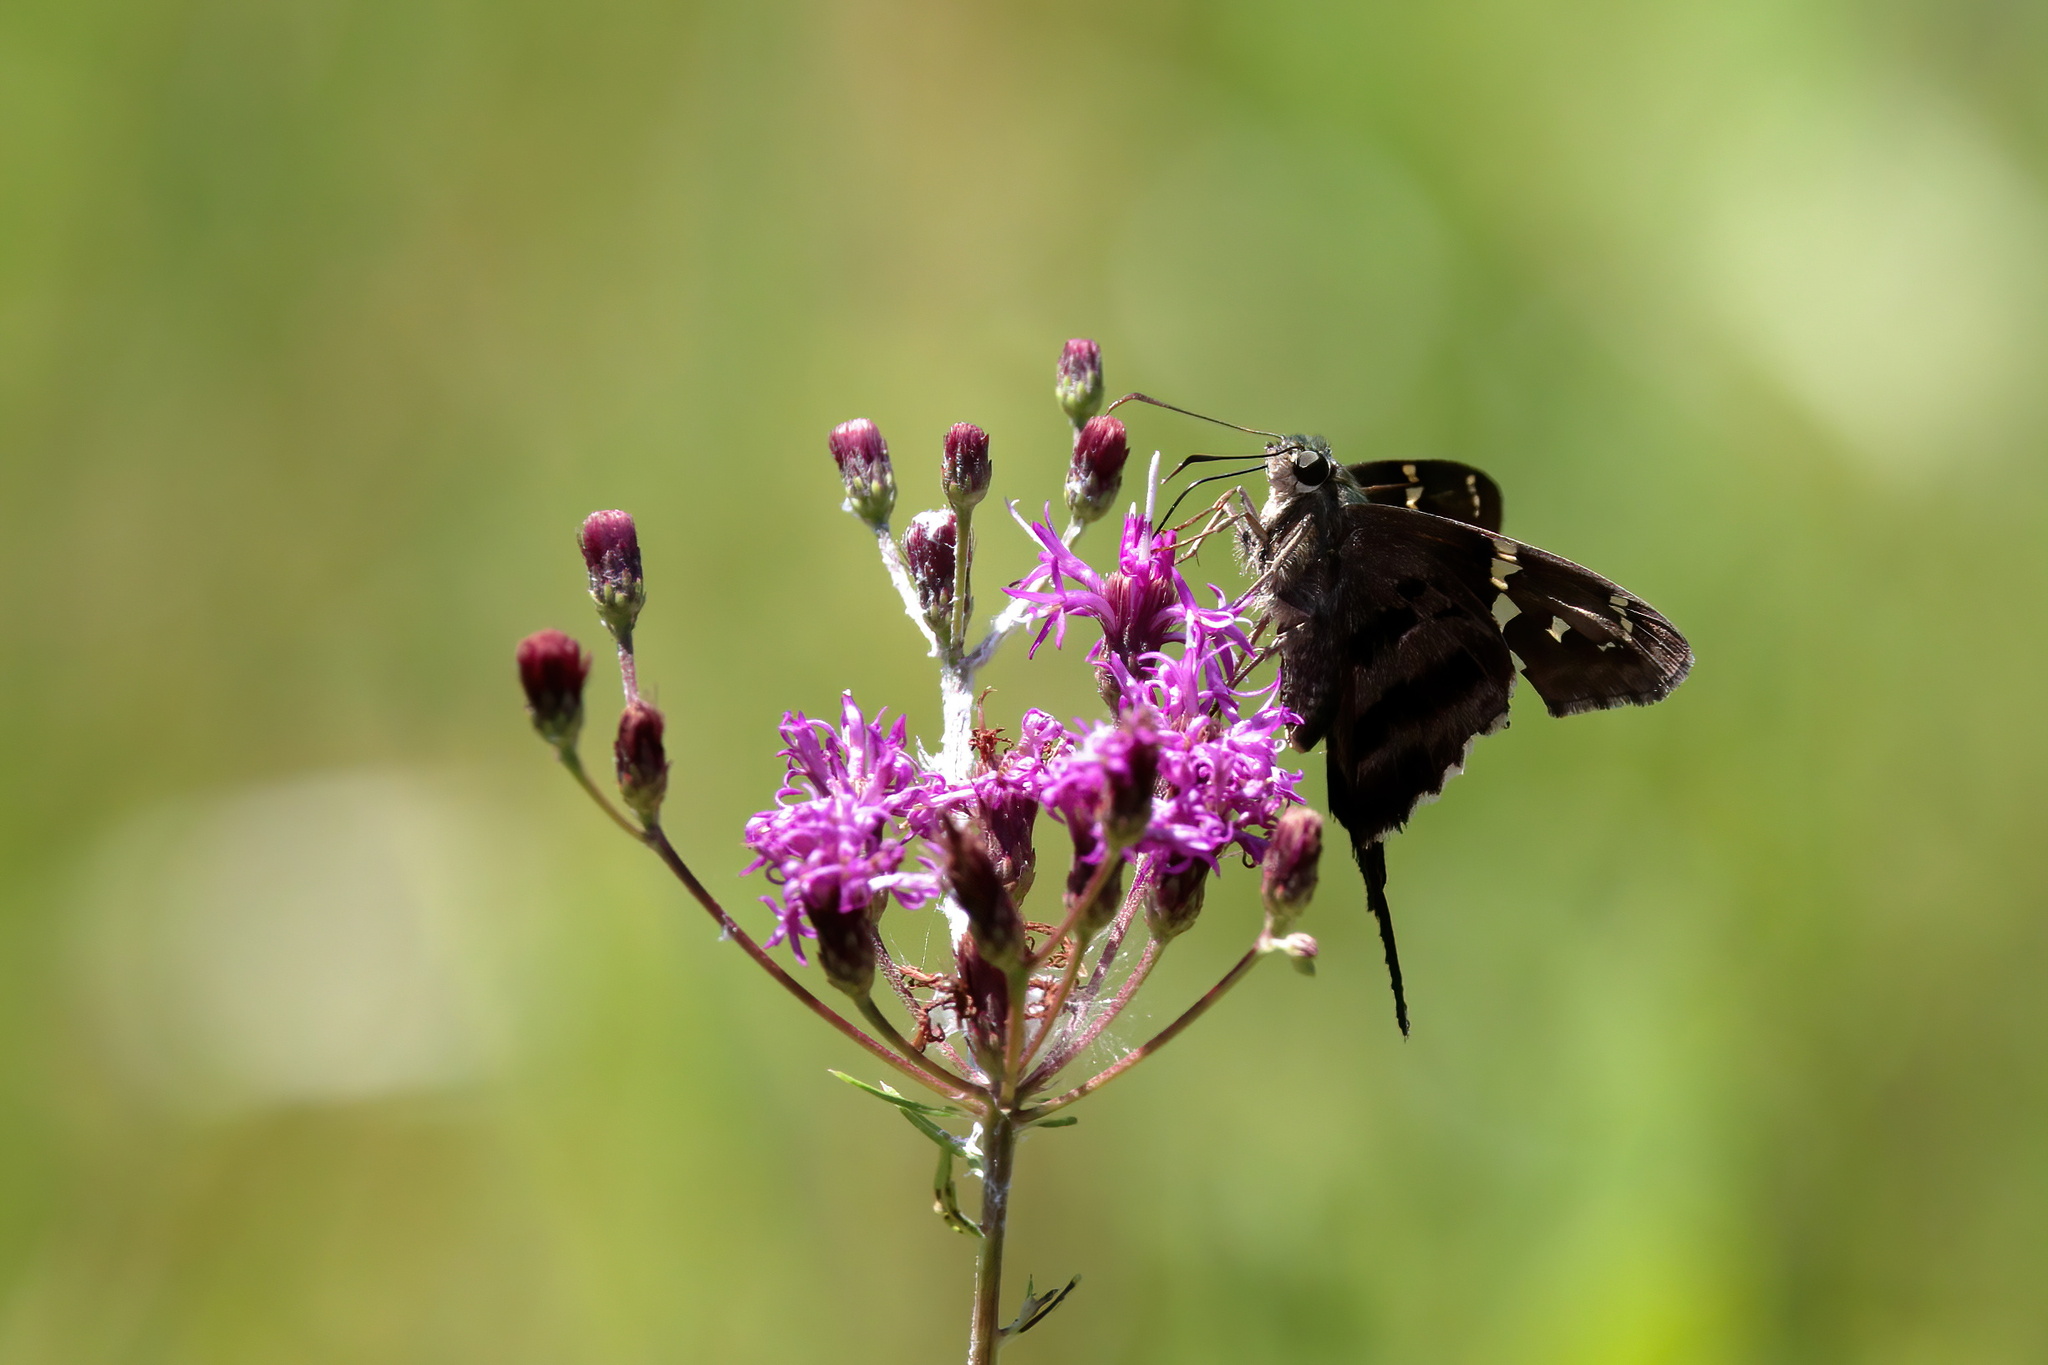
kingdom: Animalia
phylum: Arthropoda
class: Insecta
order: Lepidoptera
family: Hesperiidae
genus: Urbanus
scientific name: Urbanus proteus
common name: Long-tailed skipper
